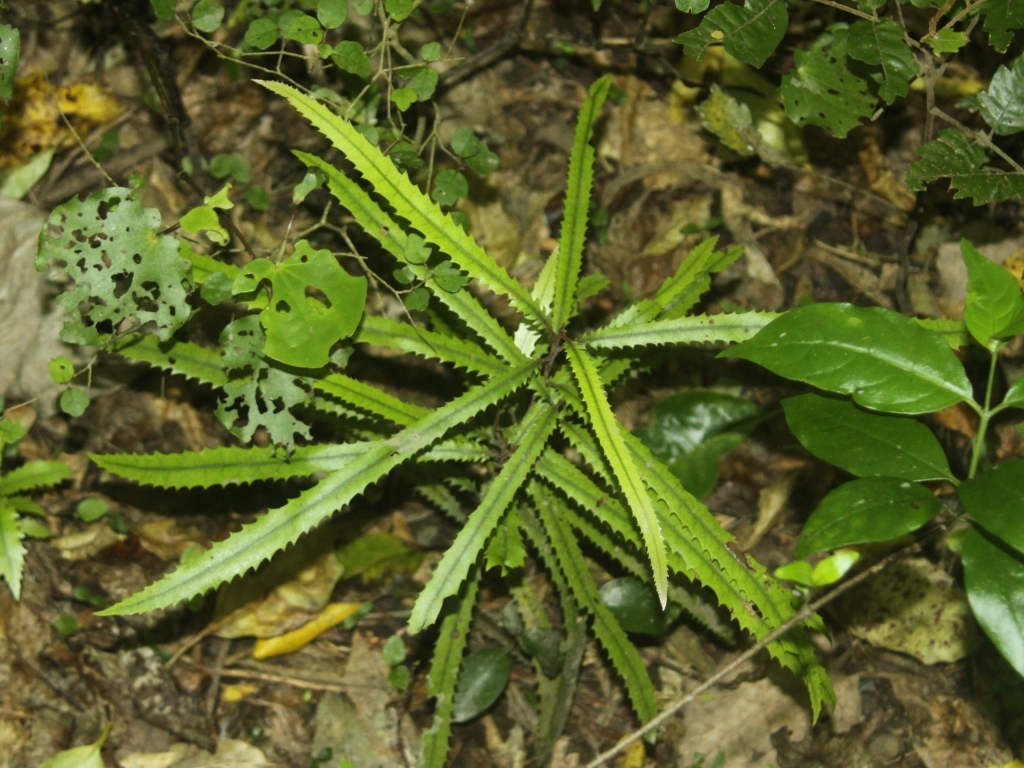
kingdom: Plantae
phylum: Tracheophyta
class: Magnoliopsida
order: Proteales
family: Proteaceae
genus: Knightia
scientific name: Knightia excelsa
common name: New zealand-honeysuckle
